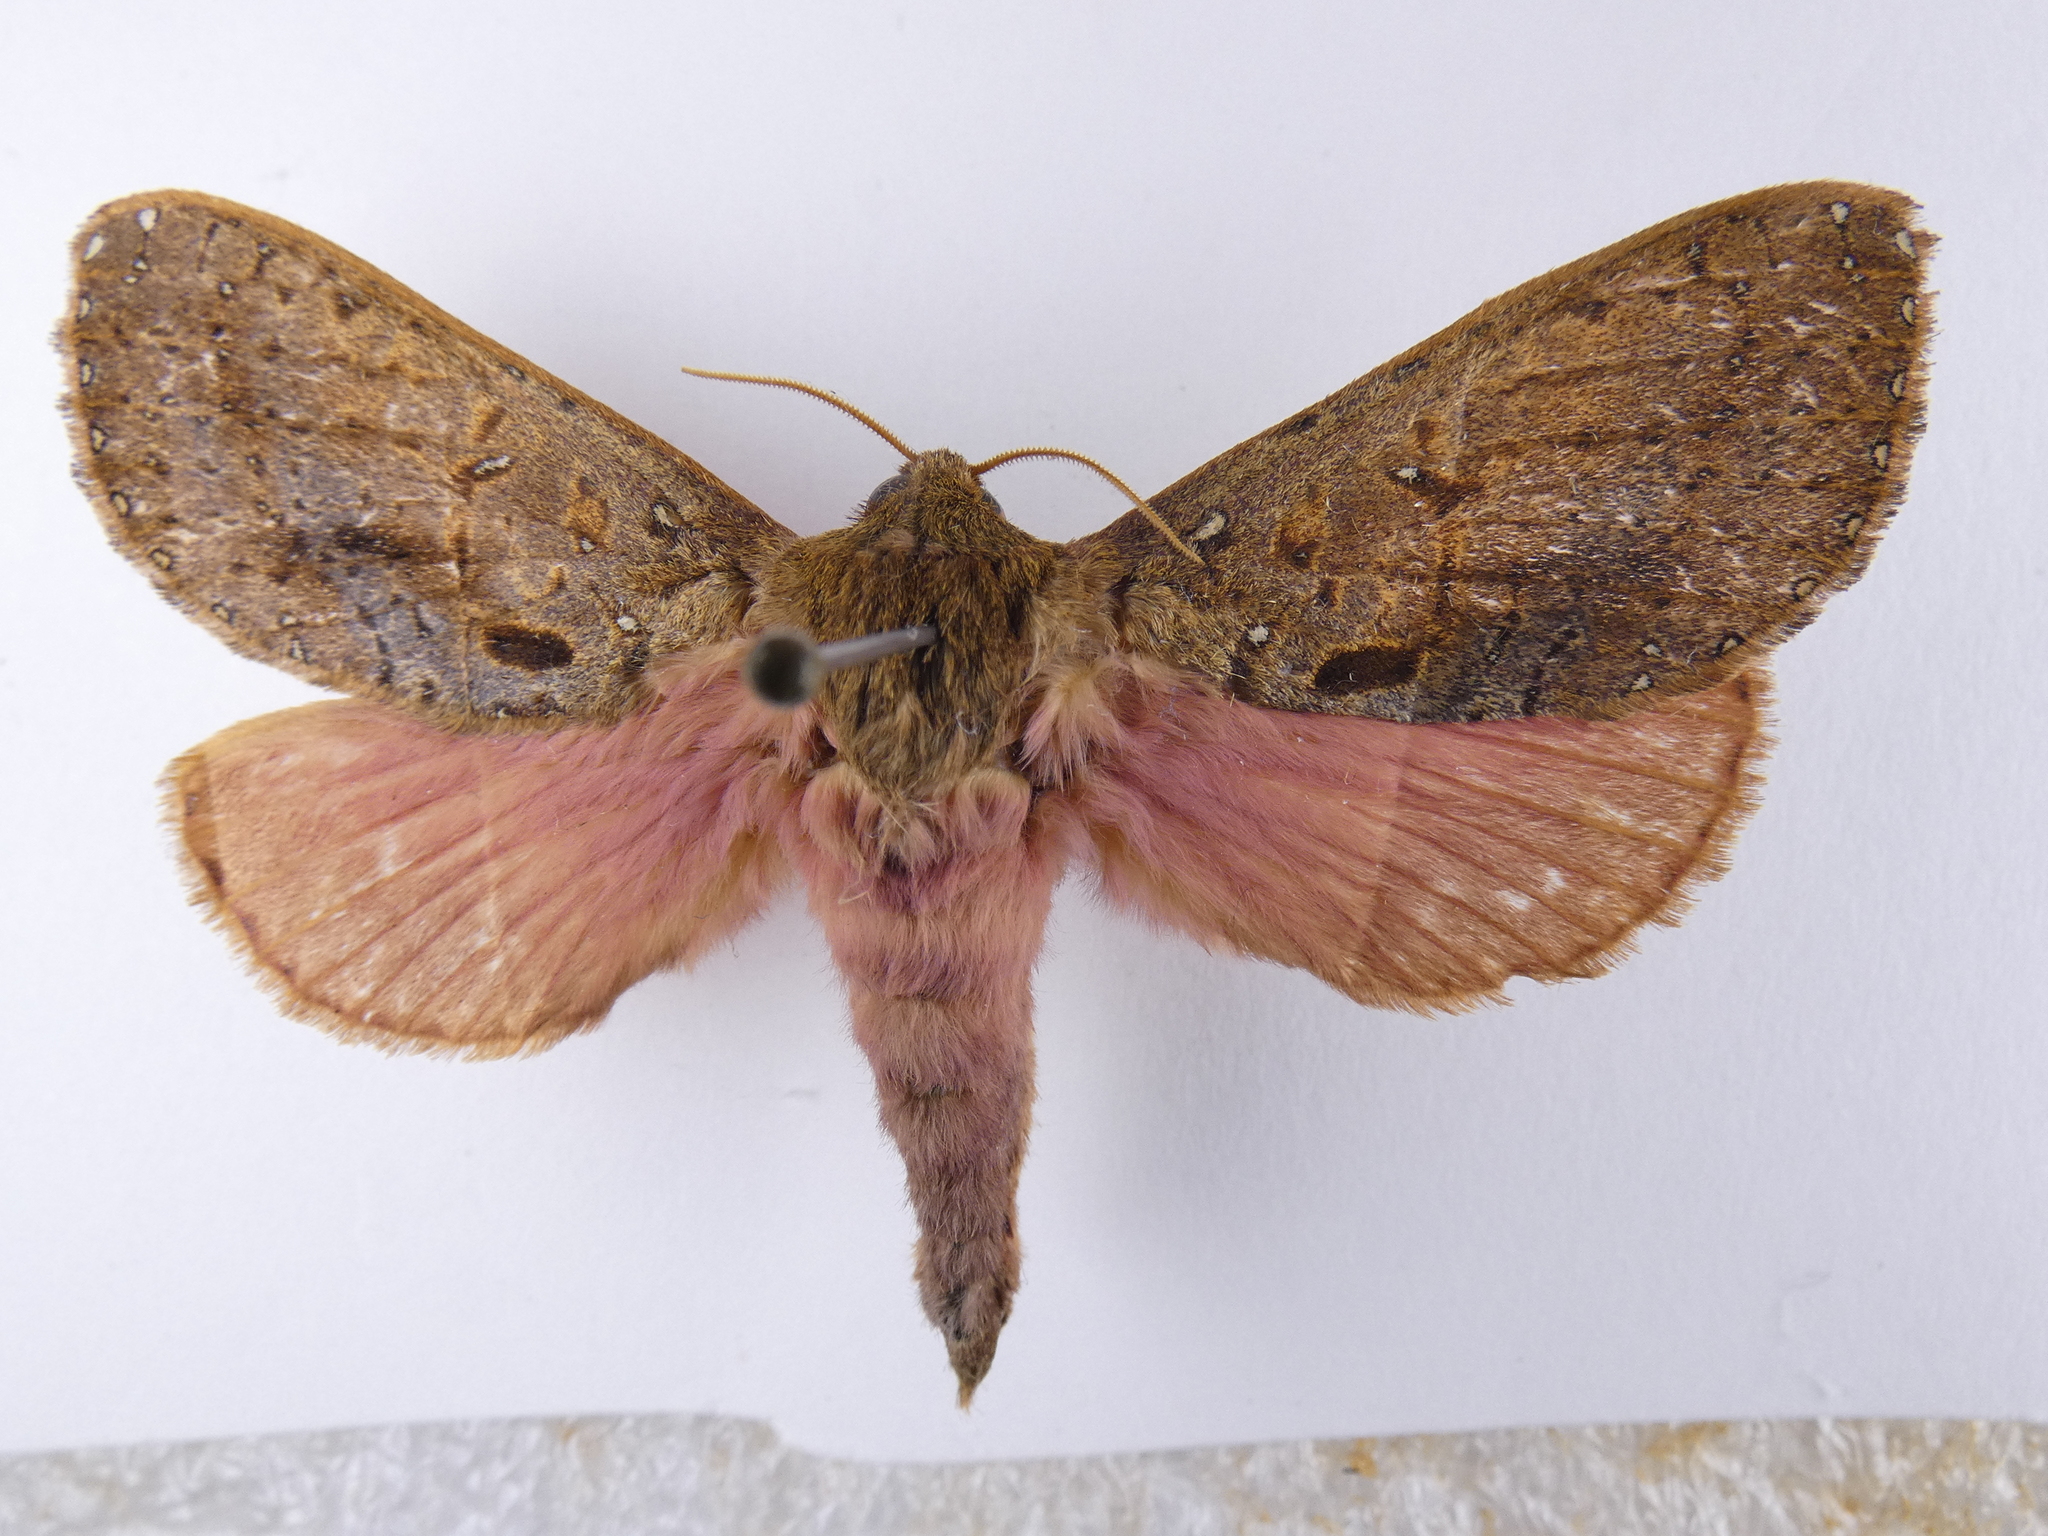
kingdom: Animalia
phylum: Arthropoda
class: Insecta
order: Lepidoptera
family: Hepialidae
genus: Dumbletonius
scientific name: Dumbletonius unimaculata
